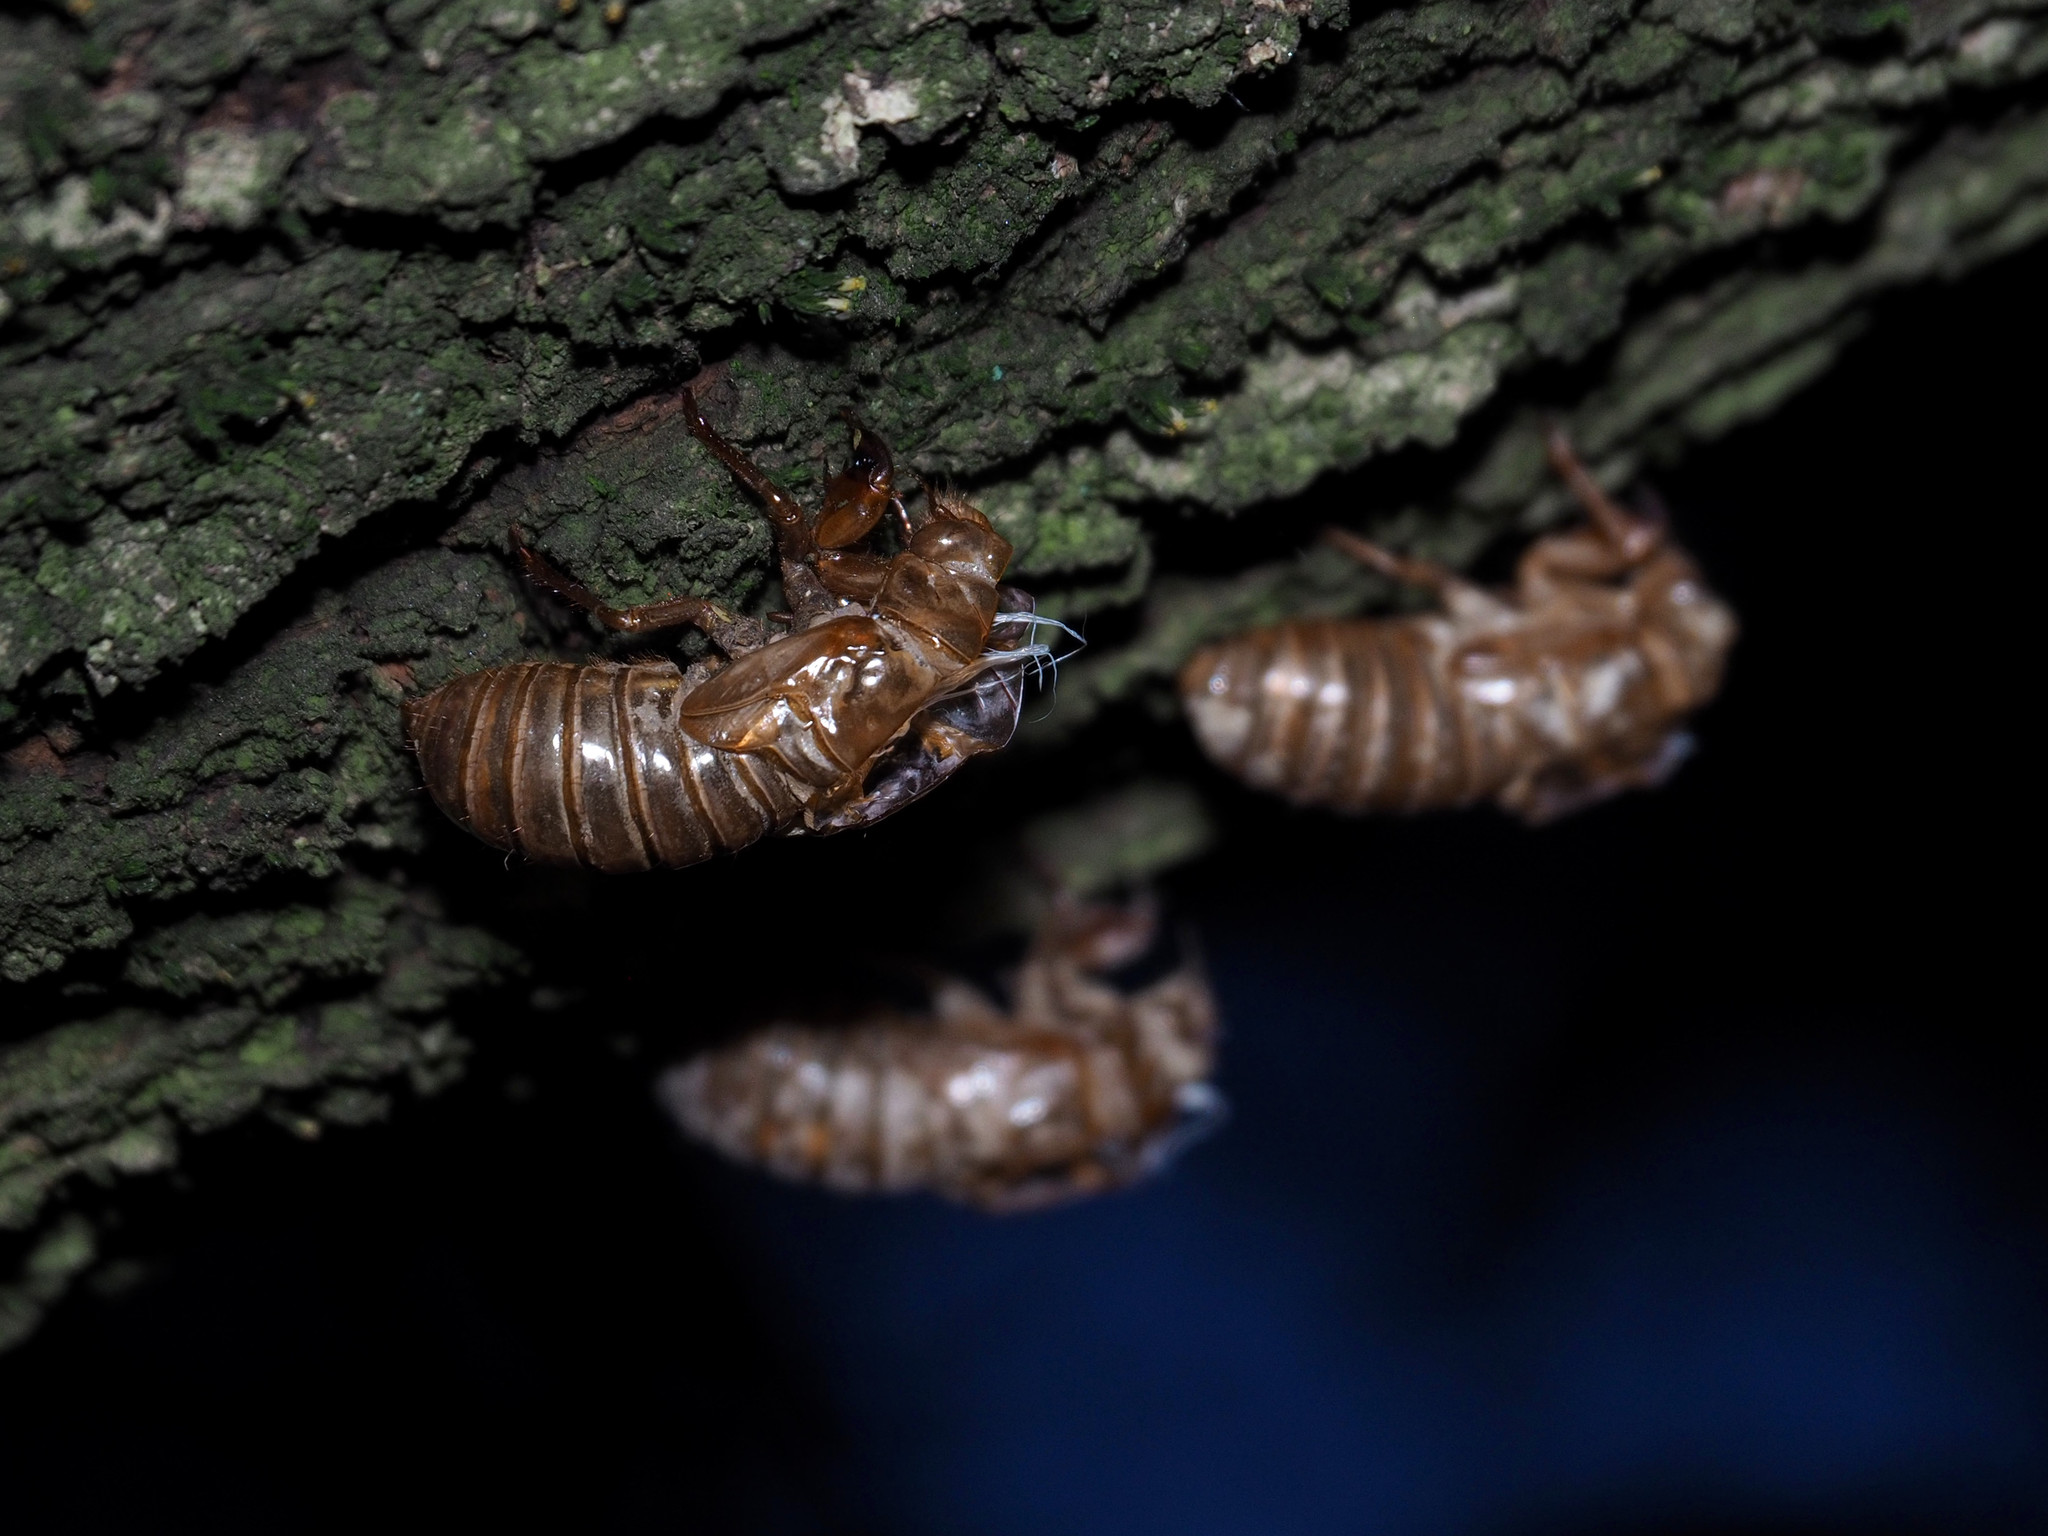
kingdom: Animalia
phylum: Arthropoda
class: Insecta
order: Hemiptera
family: Cicadidae
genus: Magicicada
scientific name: Magicicada
